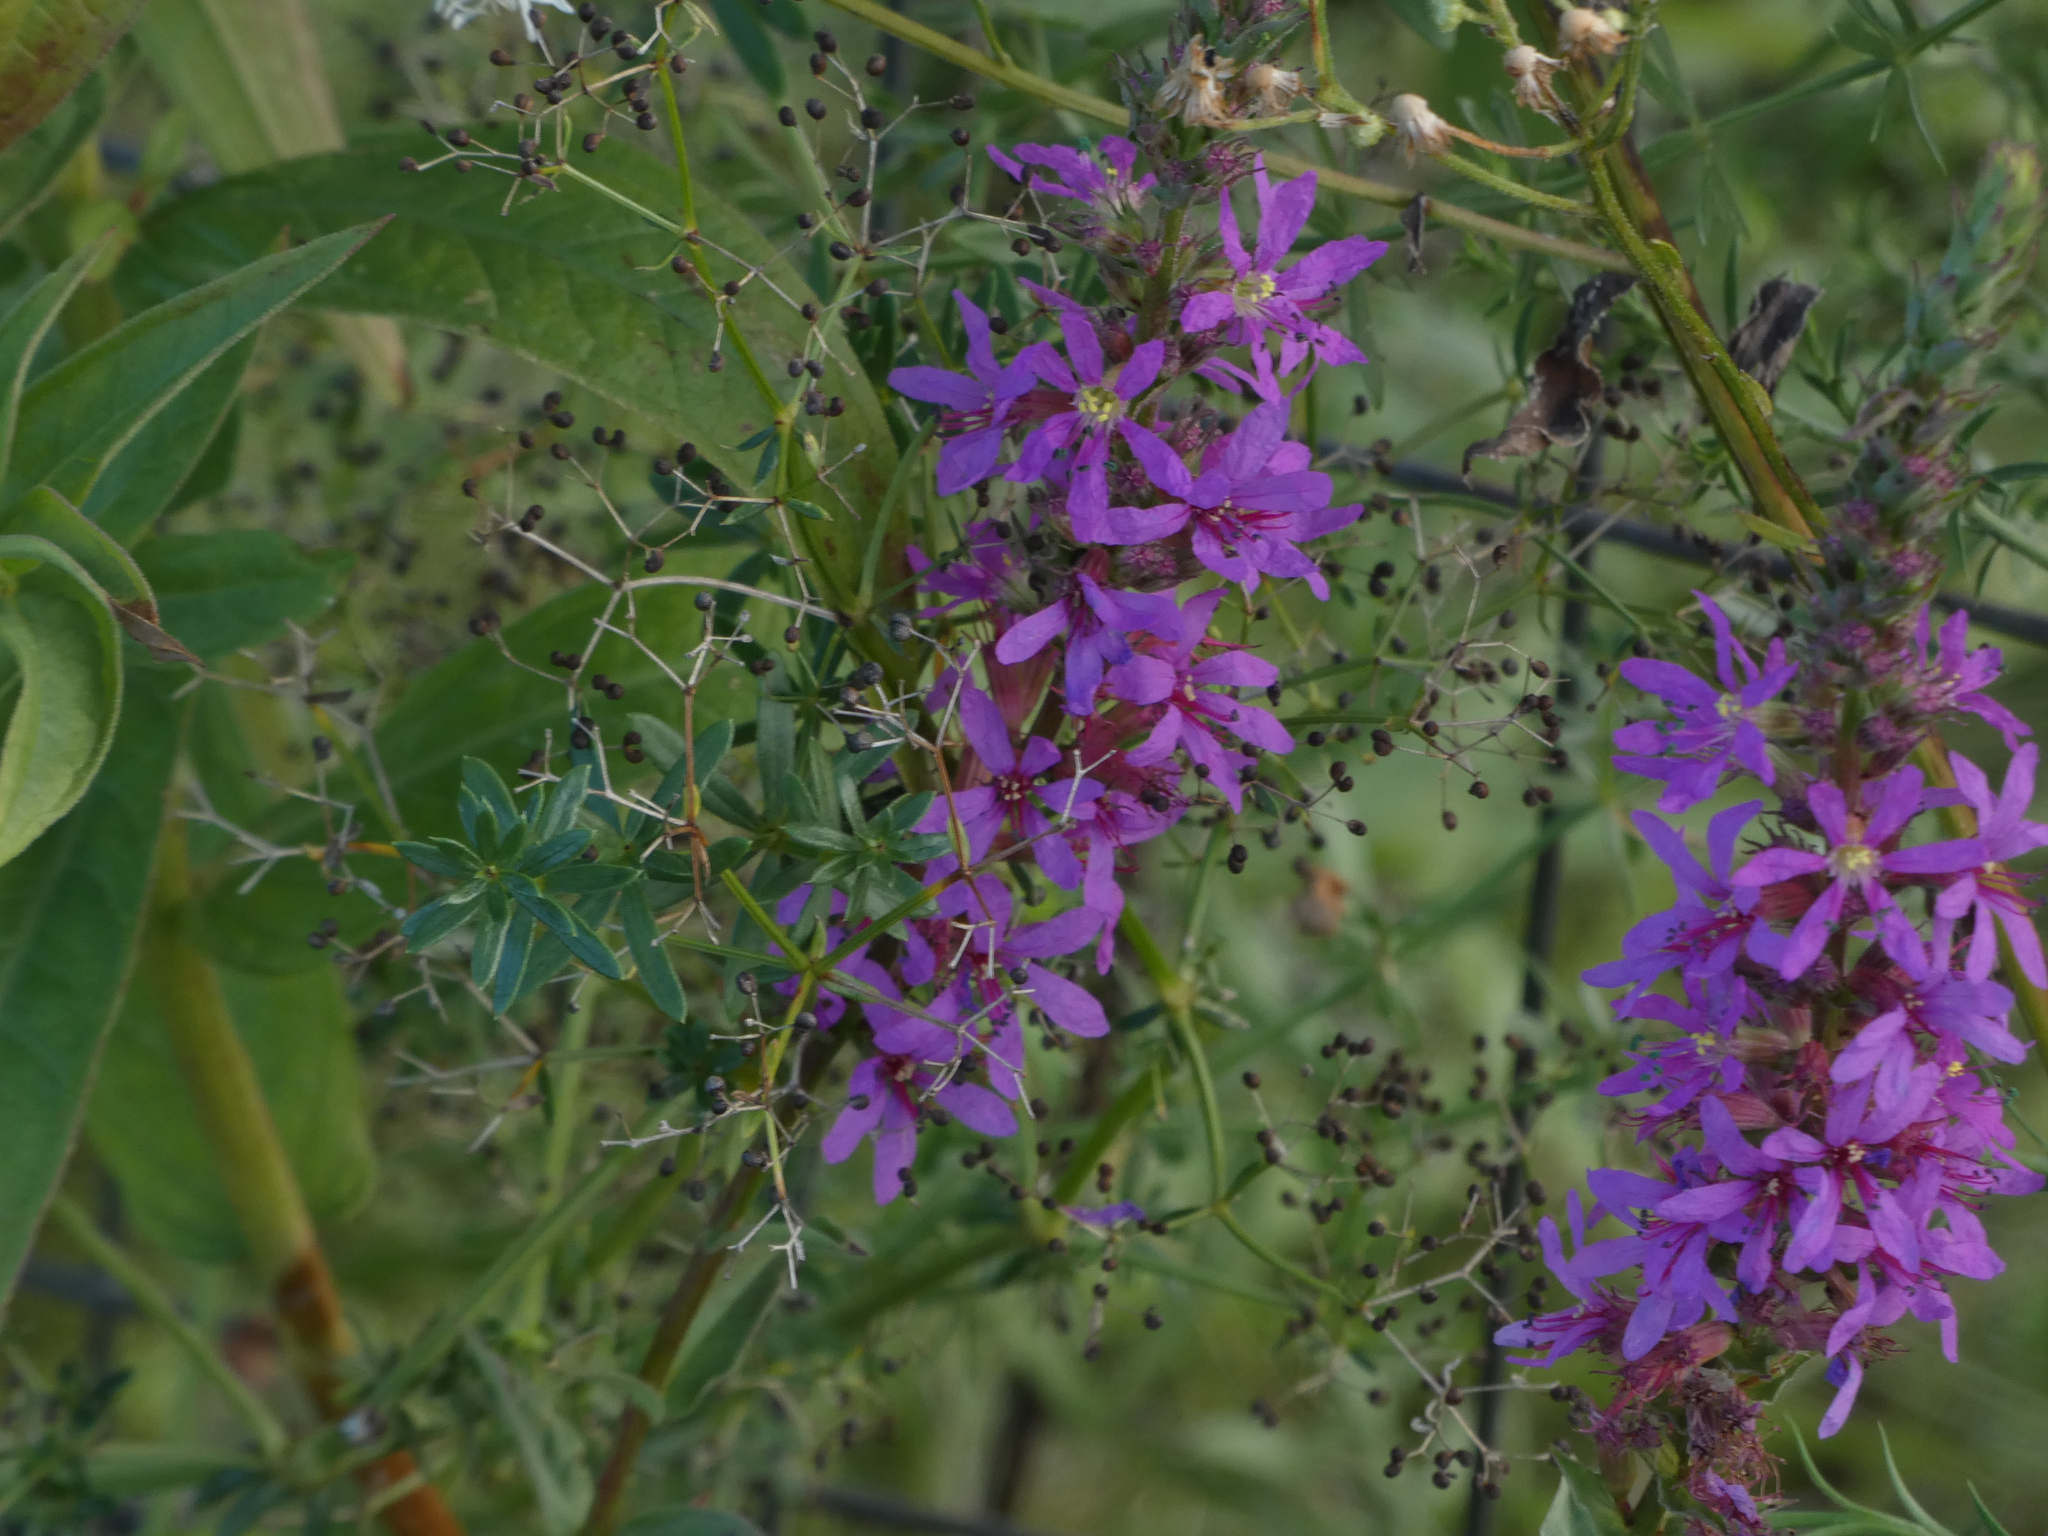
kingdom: Plantae
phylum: Tracheophyta
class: Magnoliopsida
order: Myrtales
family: Lythraceae
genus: Lythrum
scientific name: Lythrum salicaria
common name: Purple loosestrife
